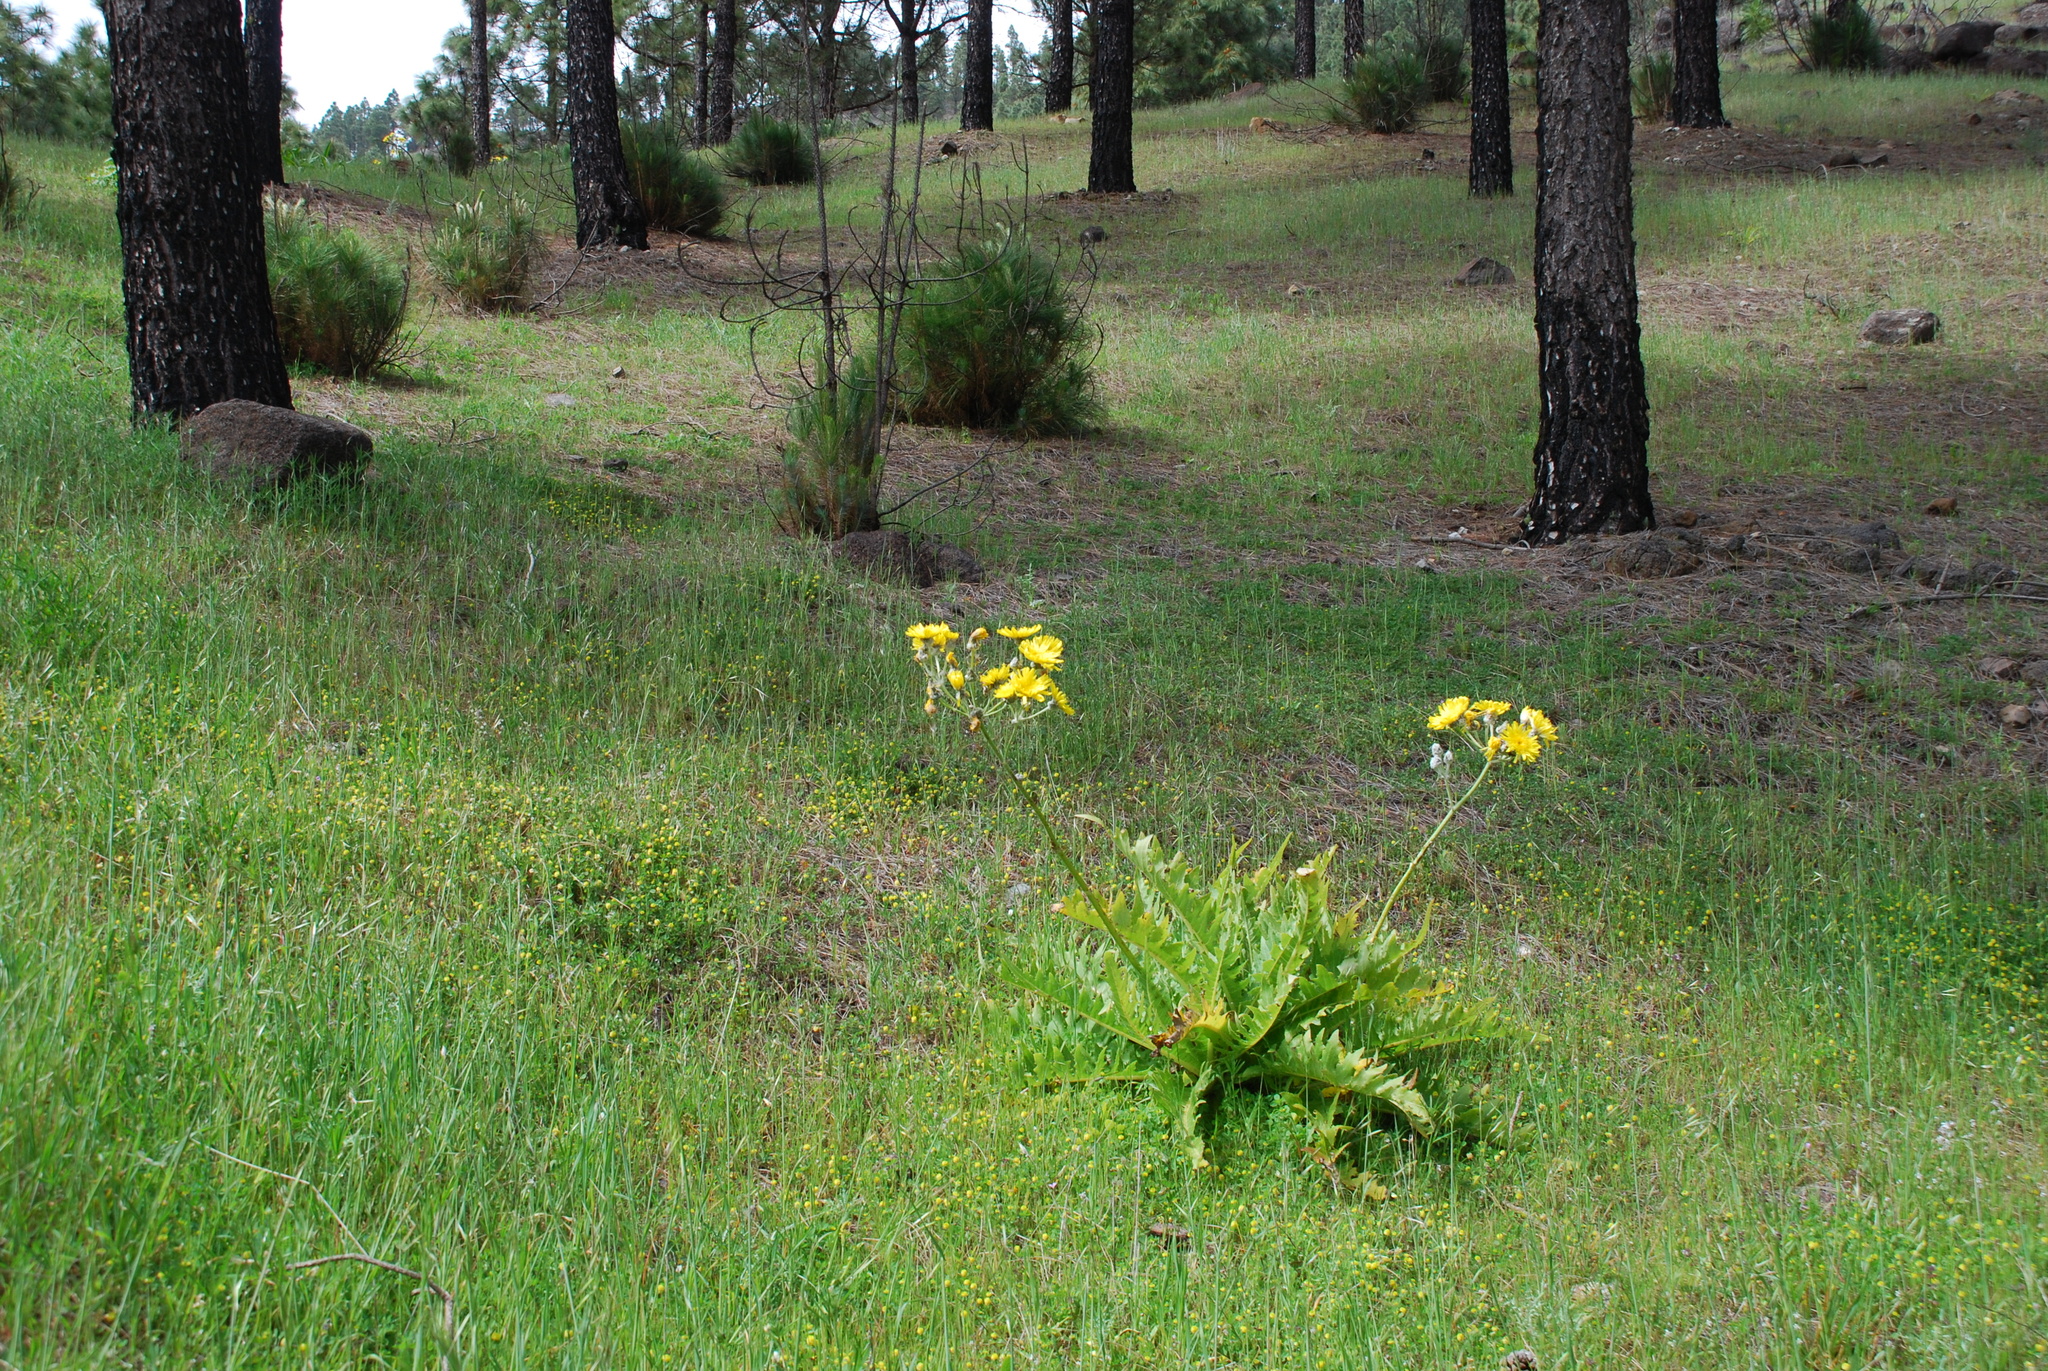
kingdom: Plantae
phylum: Tracheophyta
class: Magnoliopsida
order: Asterales
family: Asteraceae
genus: Sonchus
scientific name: Sonchus acaulis
